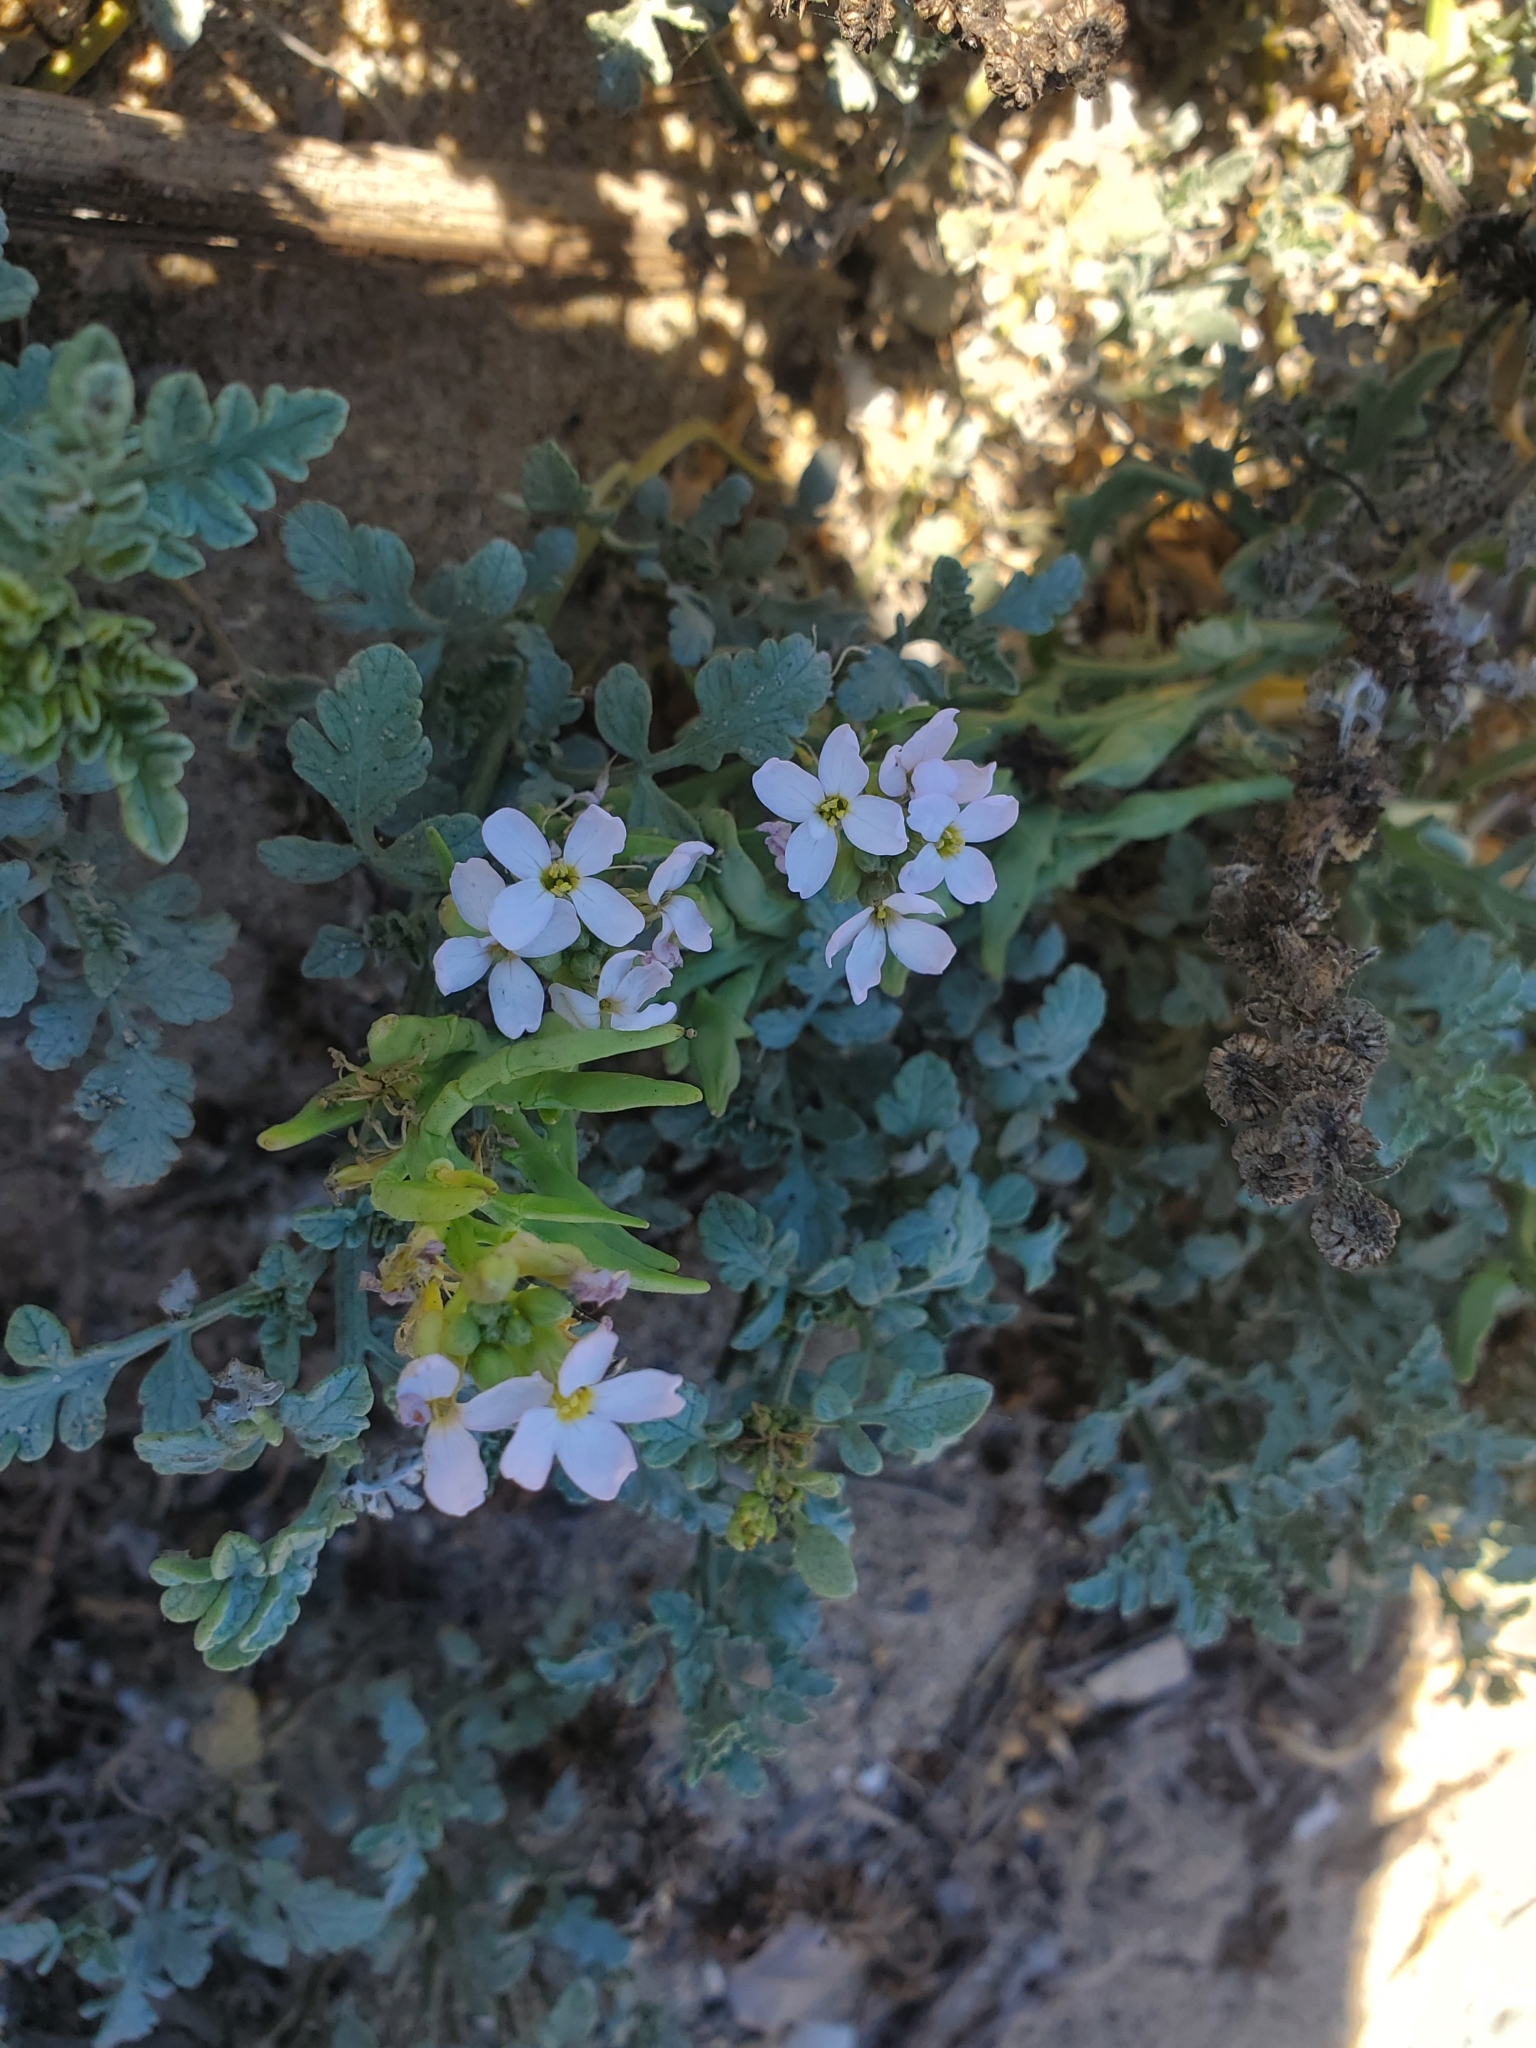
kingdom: Plantae
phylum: Tracheophyta
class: Magnoliopsida
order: Brassicales
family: Brassicaceae
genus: Cakile
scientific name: Cakile maritima
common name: Sea rocket
